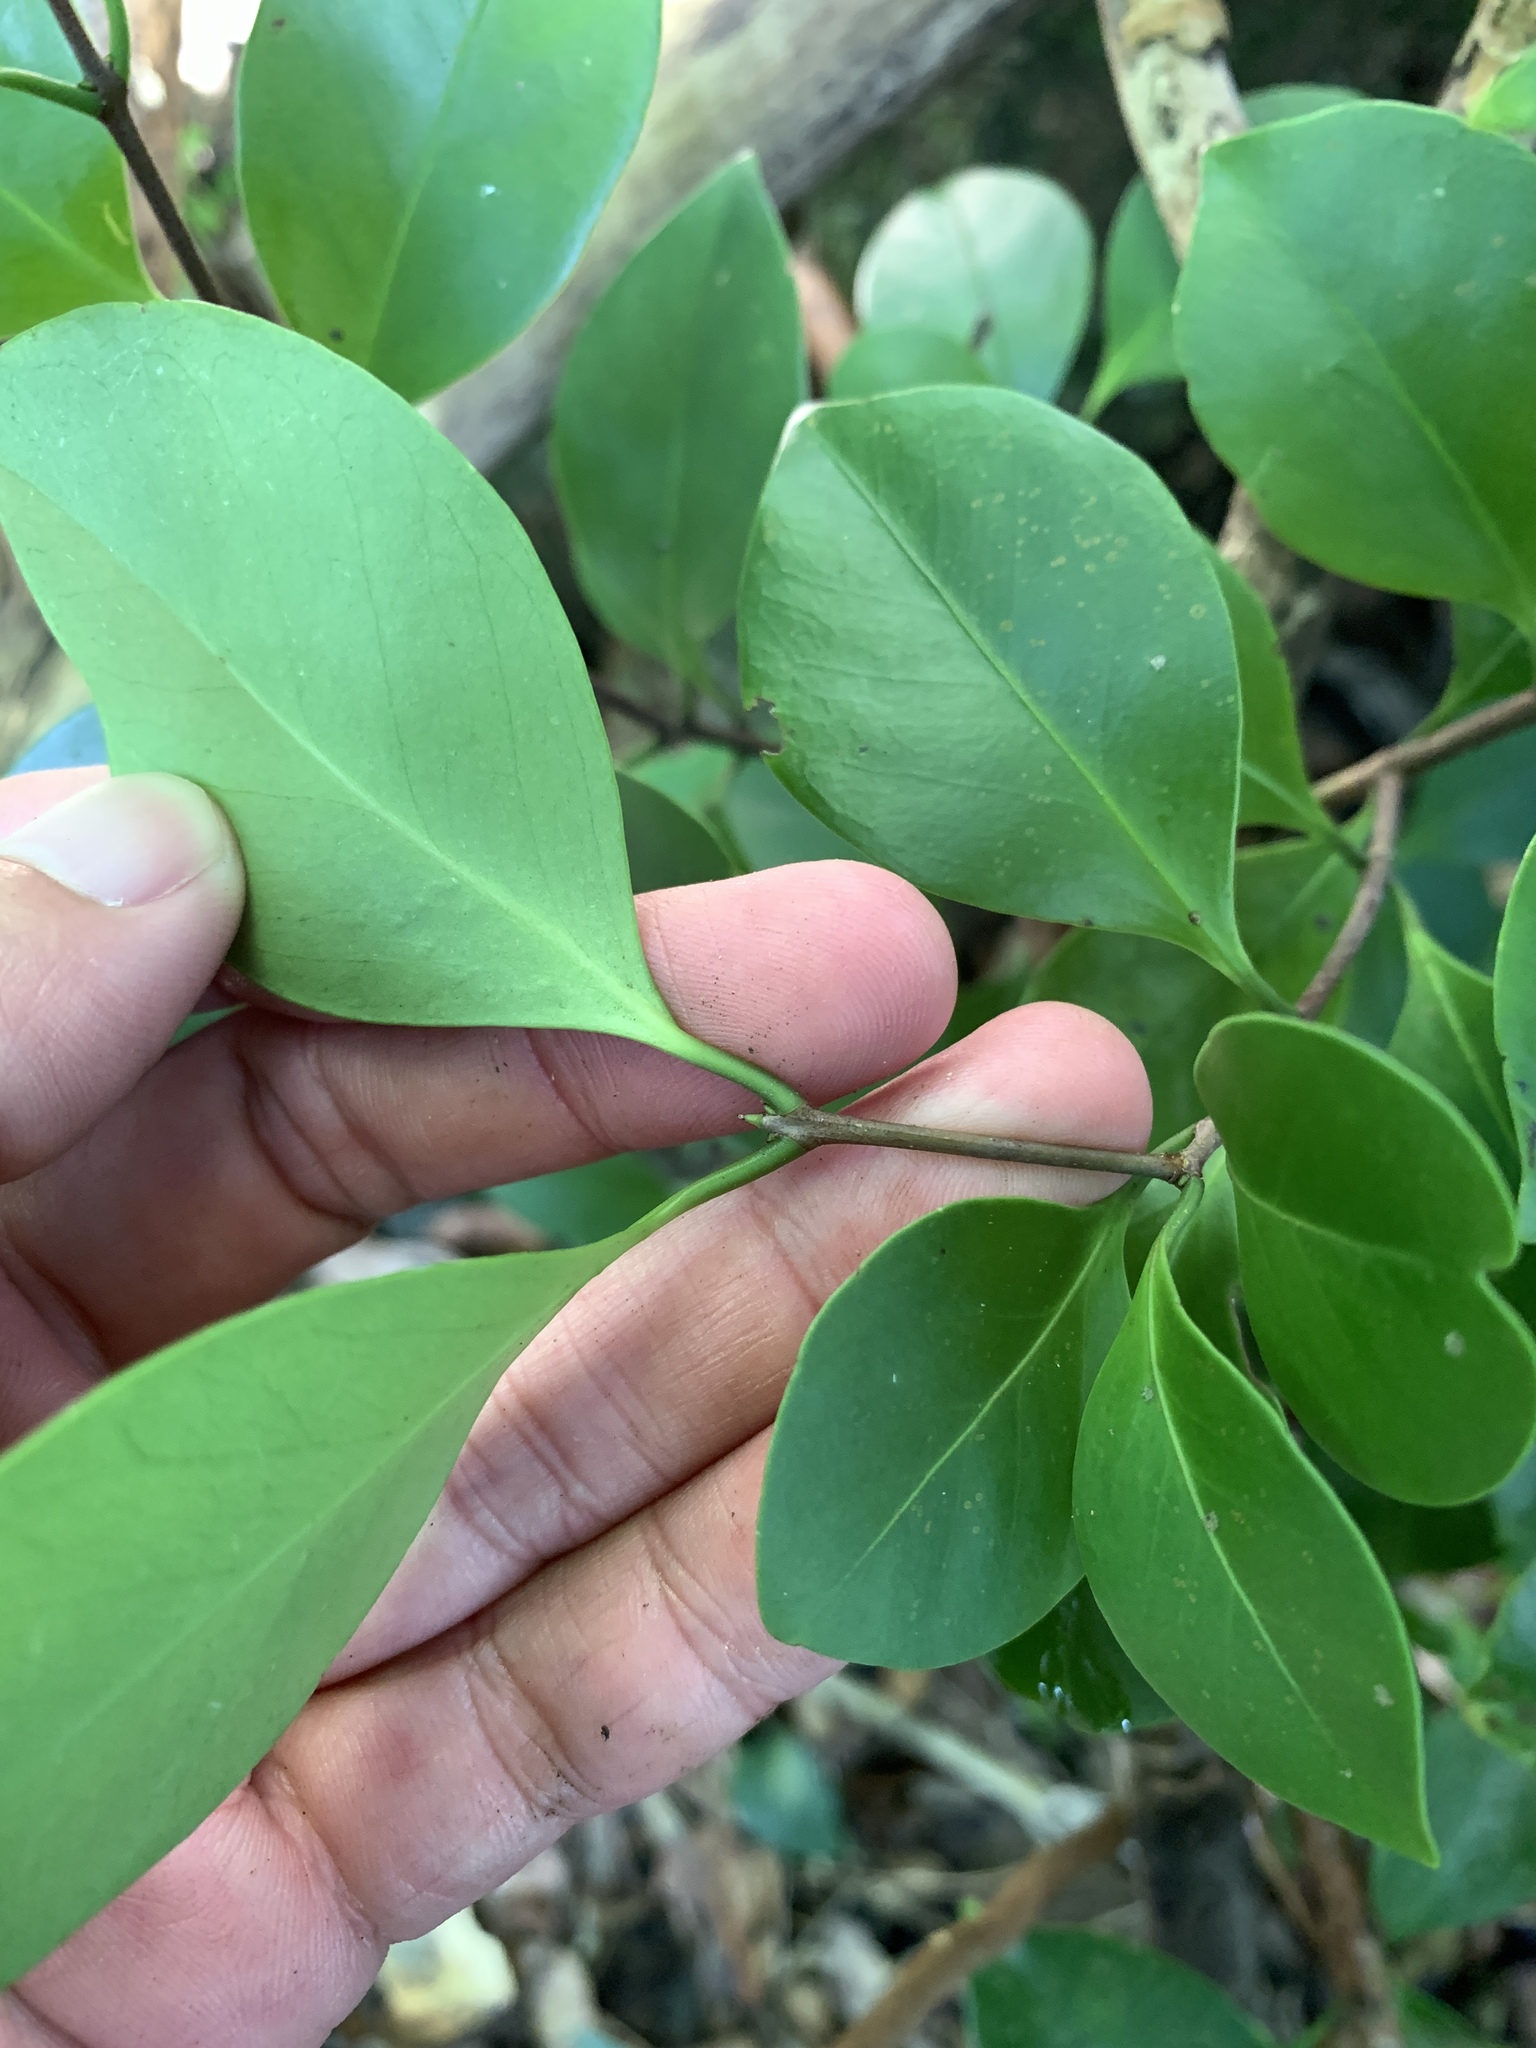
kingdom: Plantae
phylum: Tracheophyta
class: Magnoliopsida
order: Celastrales
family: Celastraceae
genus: Microtropis
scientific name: Microtropis japonica
